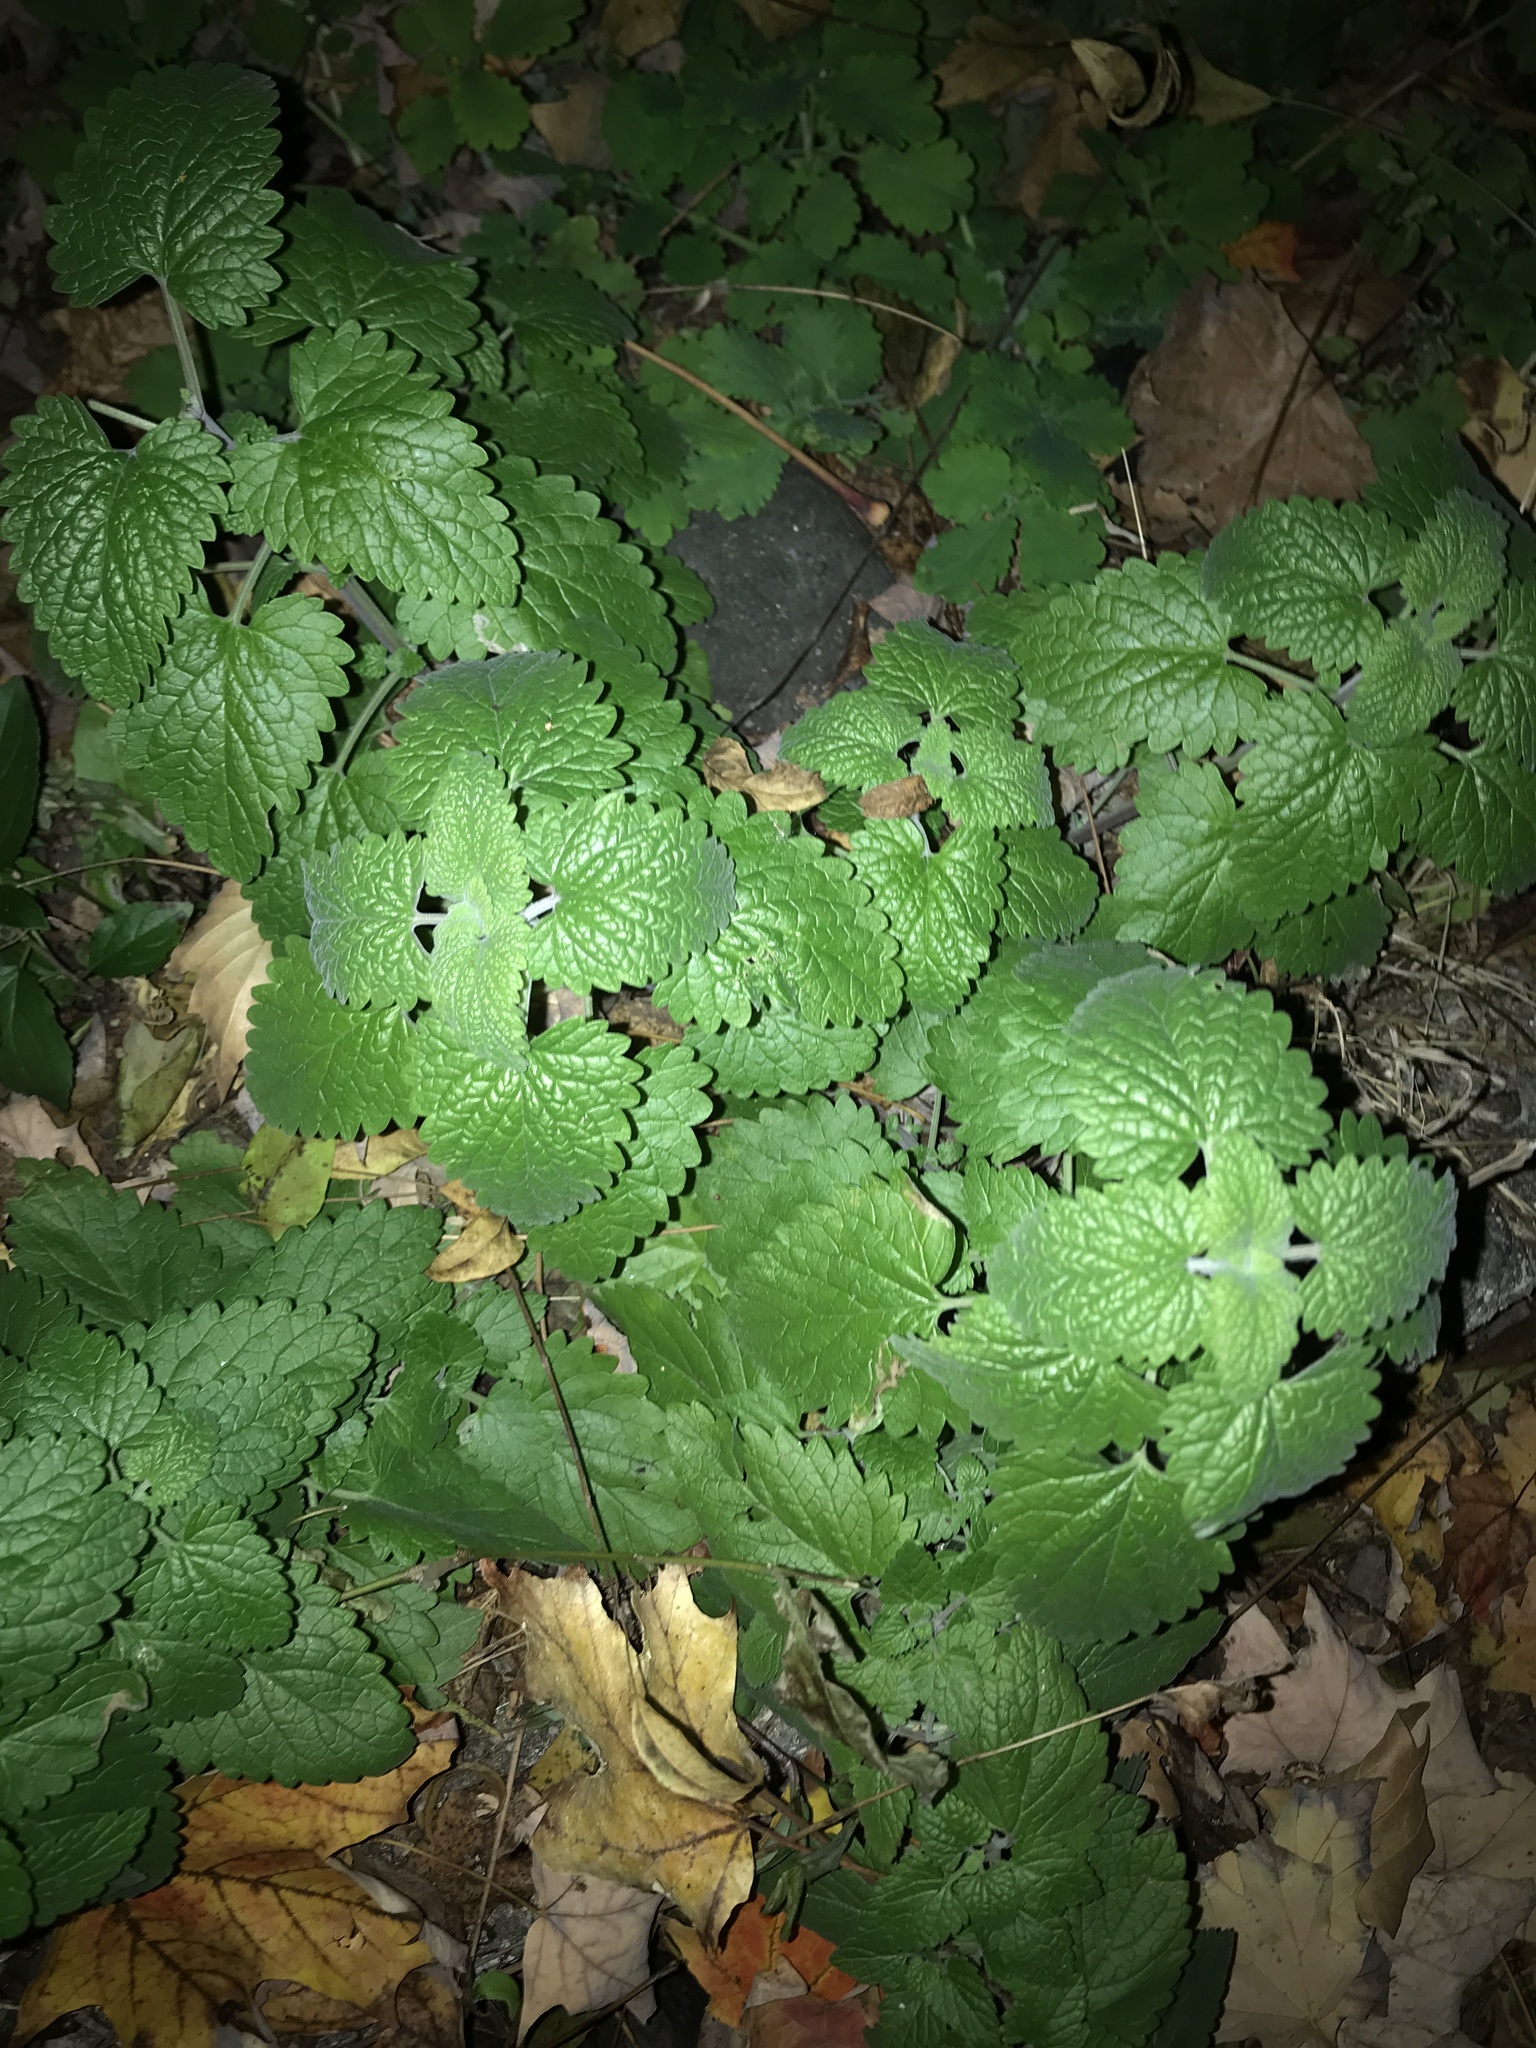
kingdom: Plantae
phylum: Tracheophyta
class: Magnoliopsida
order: Lamiales
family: Lamiaceae
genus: Nepeta
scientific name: Nepeta cataria
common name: Catnip
